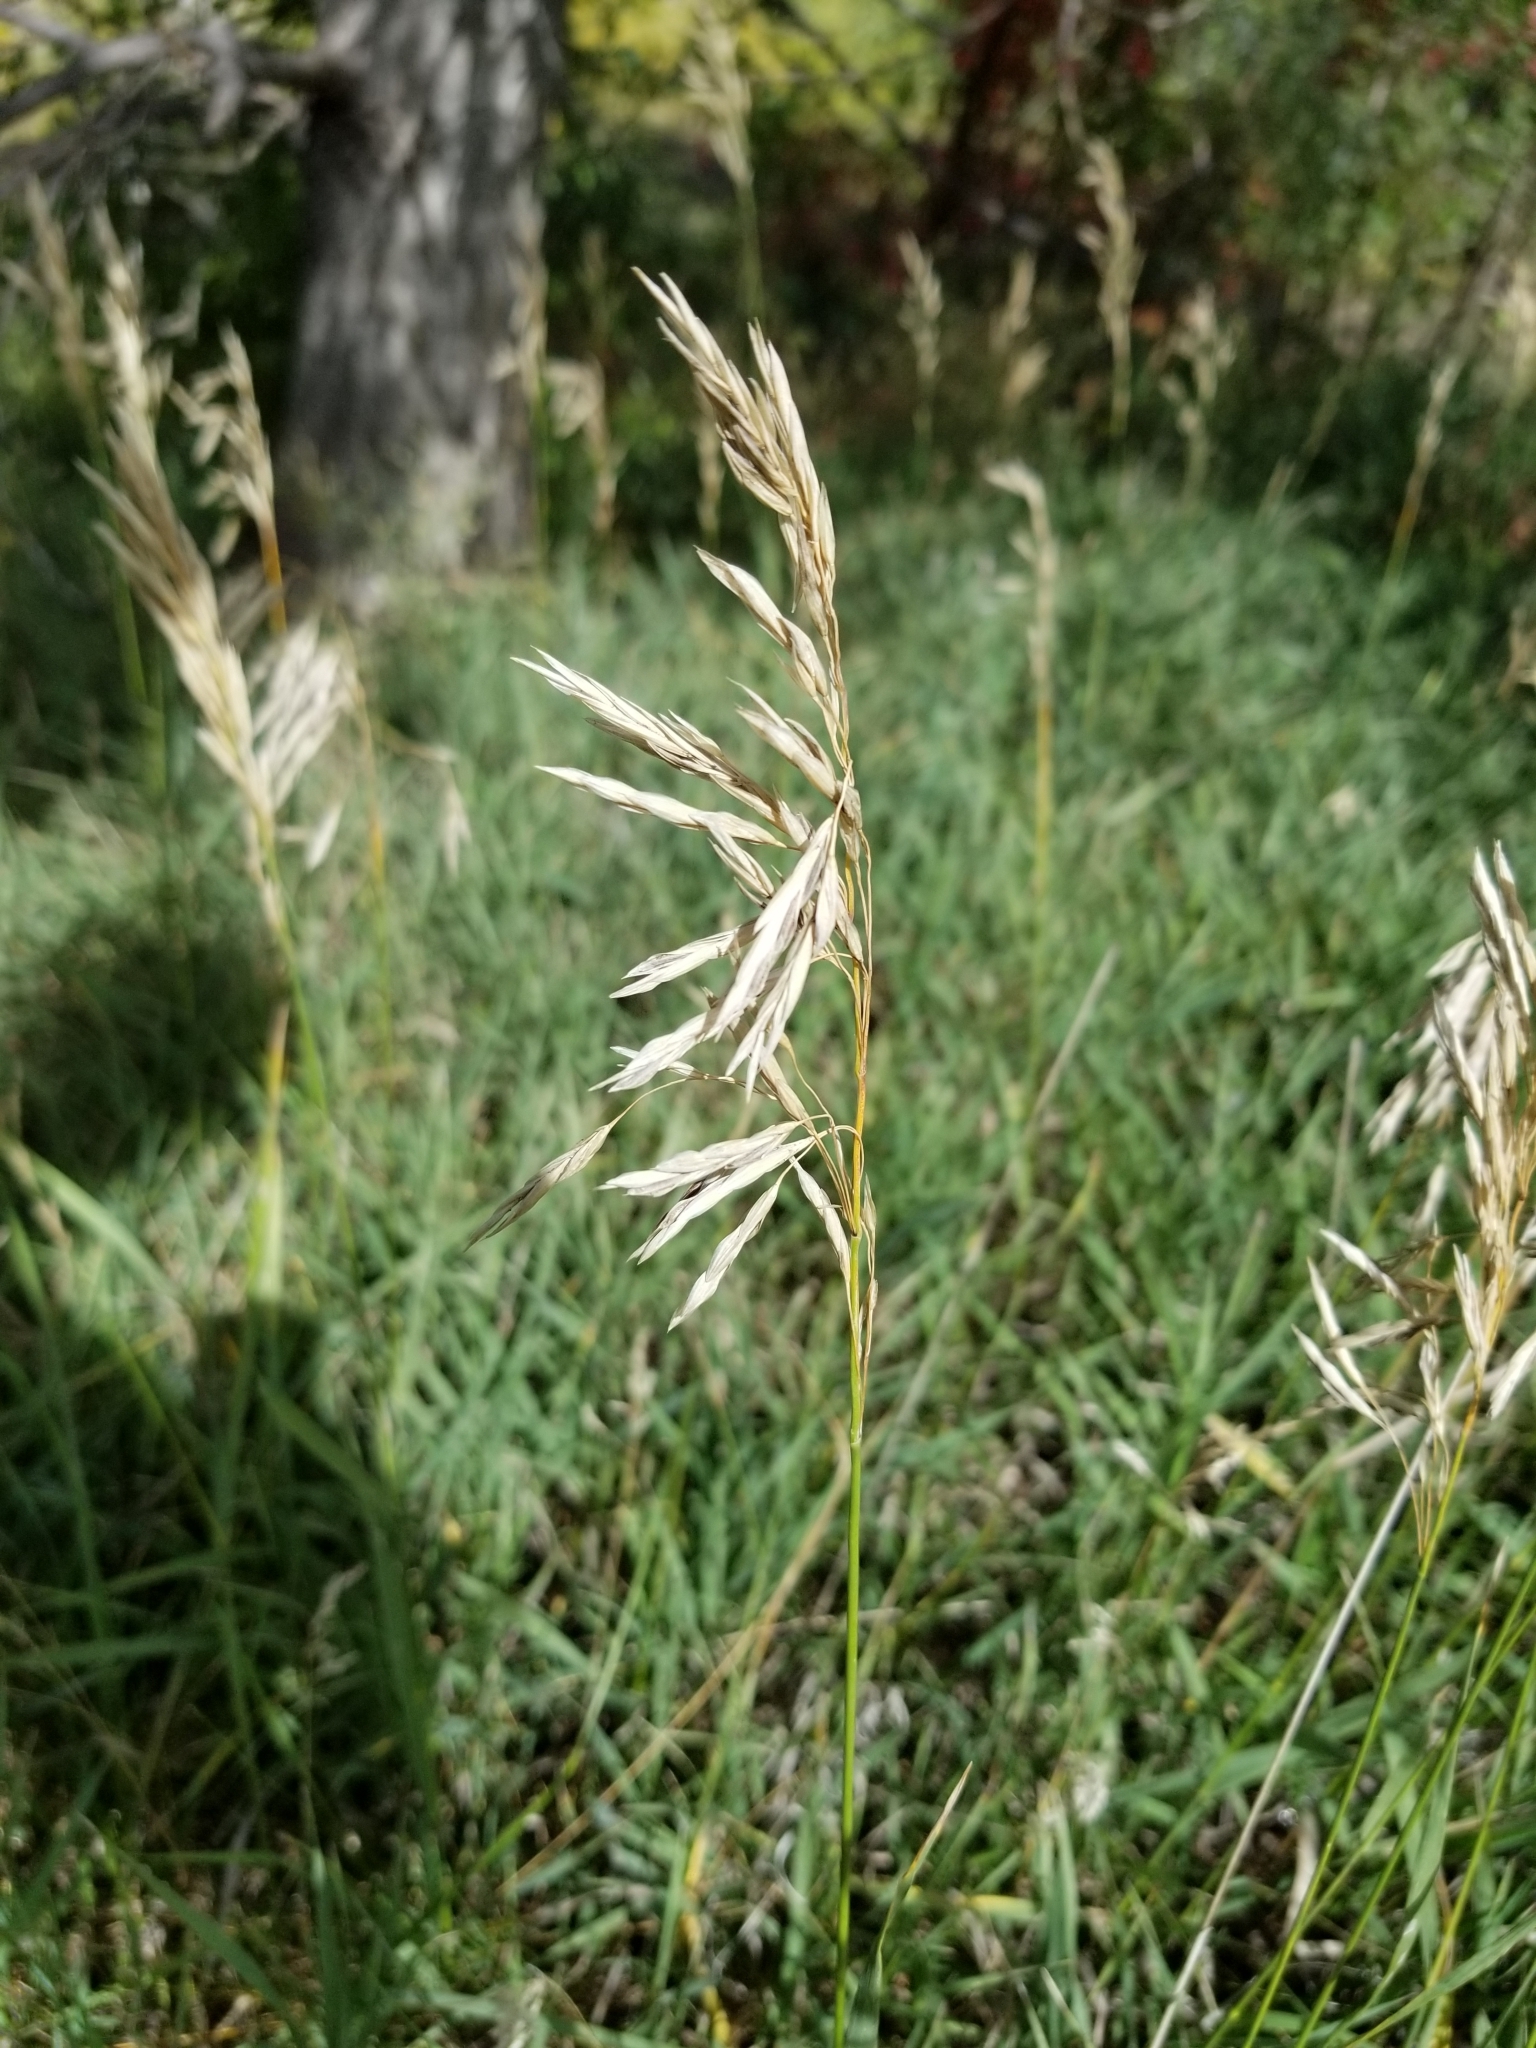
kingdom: Plantae
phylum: Tracheophyta
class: Liliopsida
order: Poales
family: Poaceae
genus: Bromus
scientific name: Bromus inermis
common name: Smooth brome
